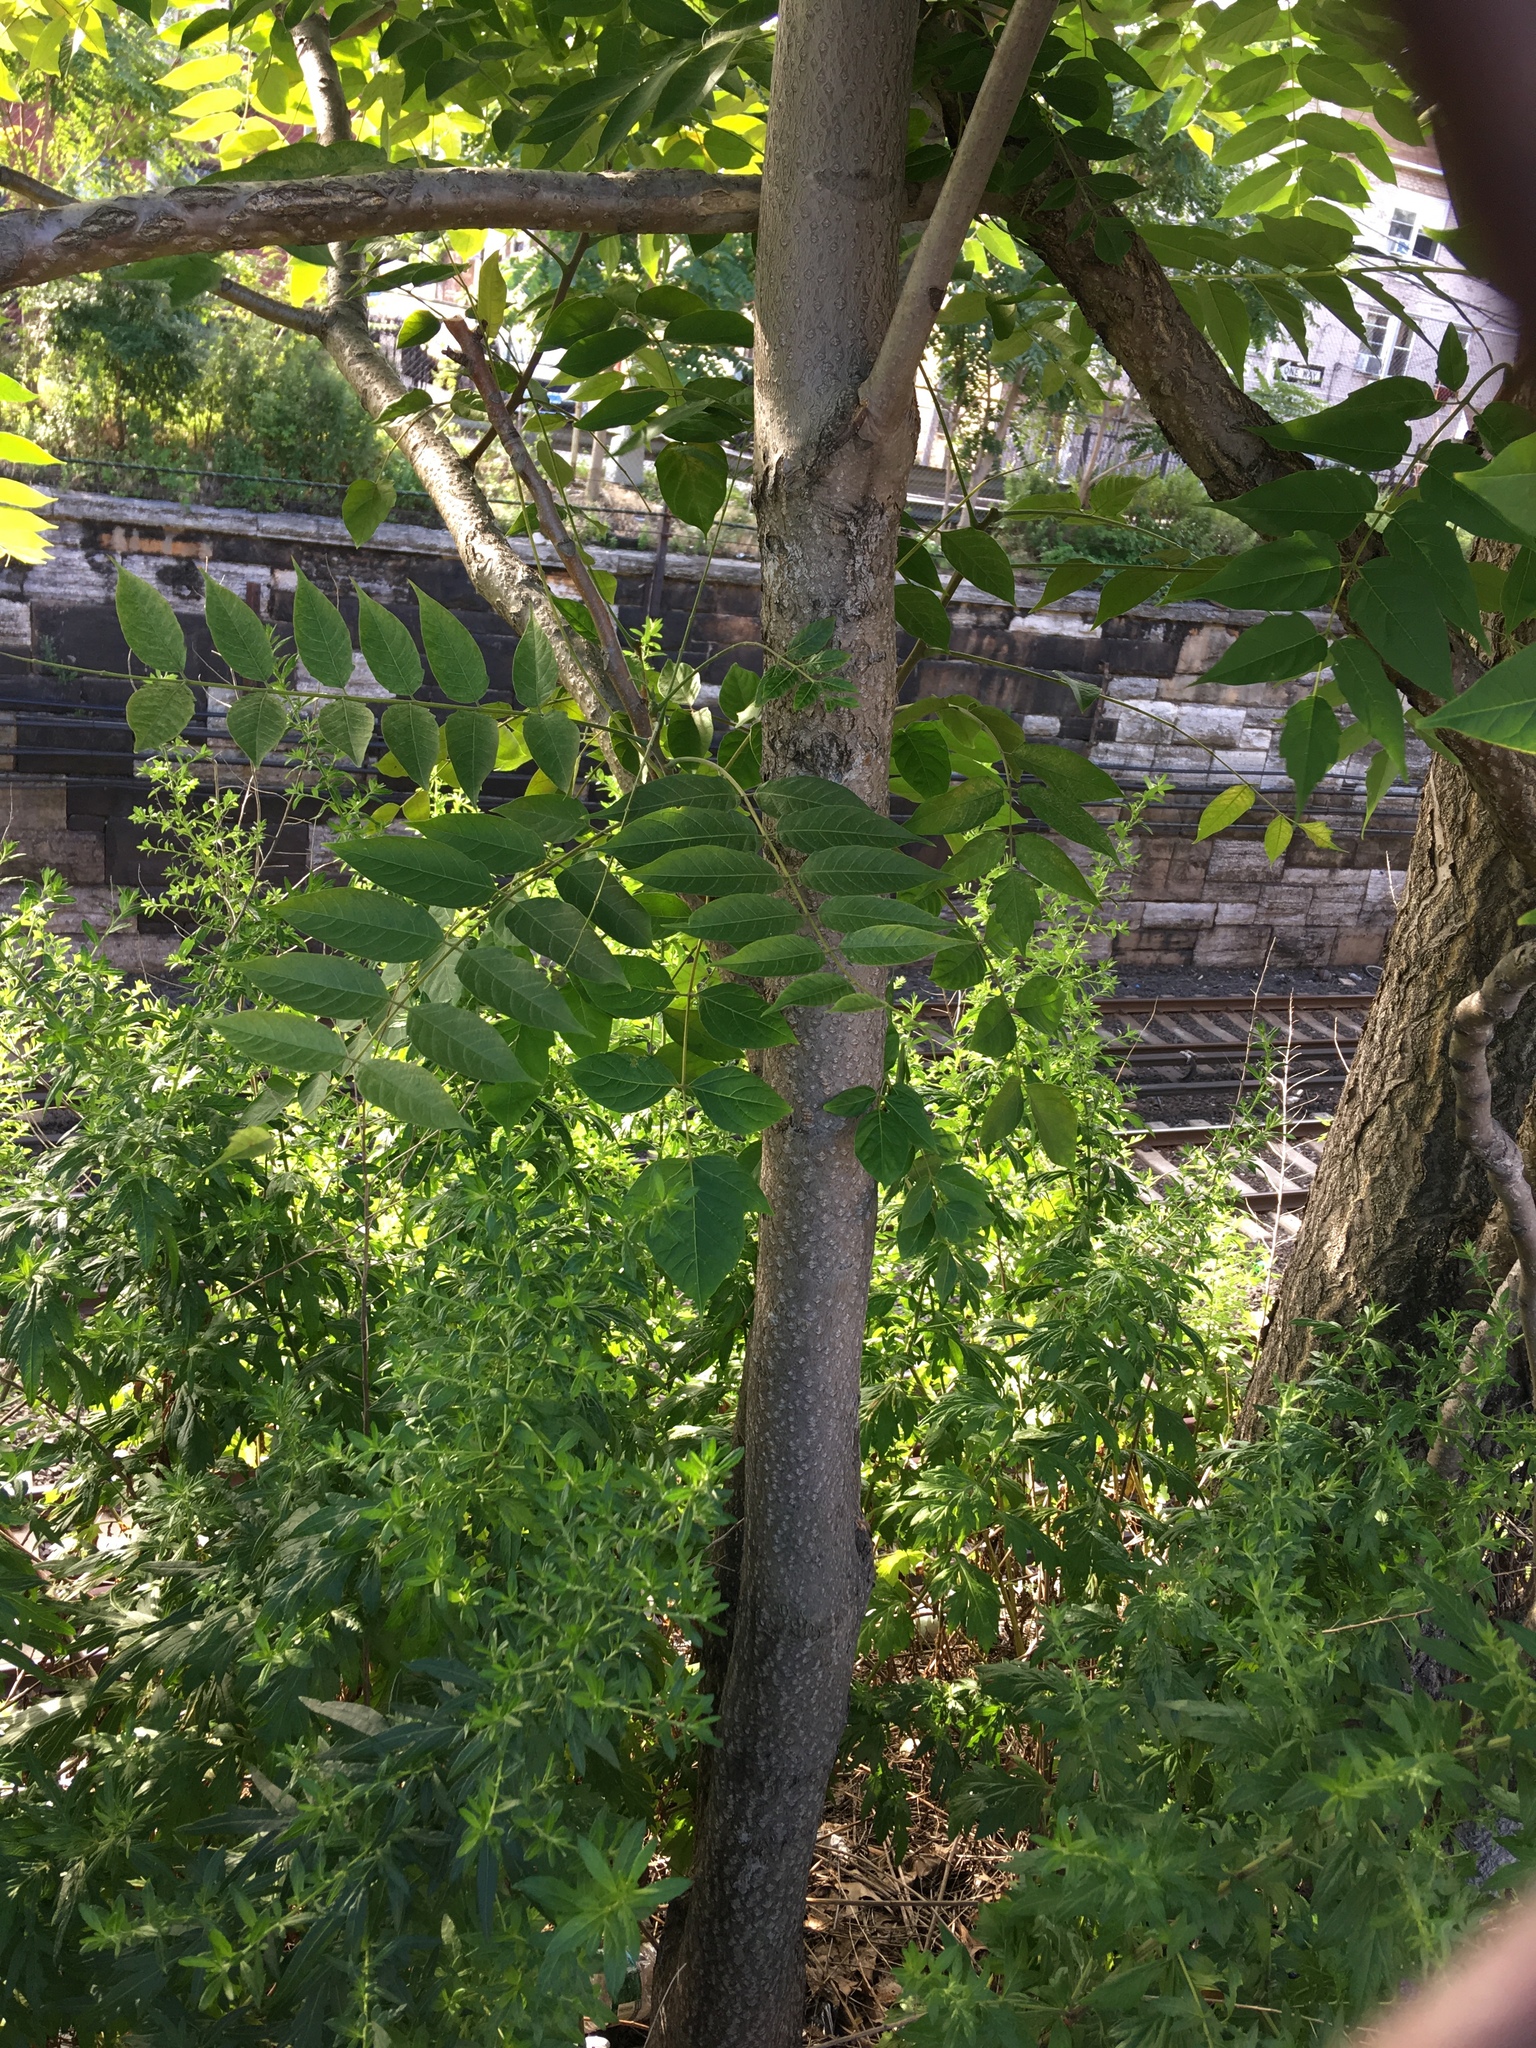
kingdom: Plantae
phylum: Tracheophyta
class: Magnoliopsida
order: Sapindales
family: Simaroubaceae
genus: Ailanthus
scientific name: Ailanthus altissima
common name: Tree-of-heaven
